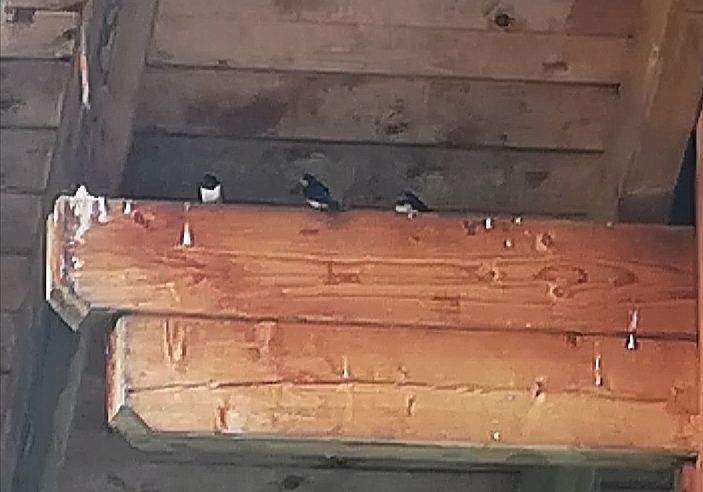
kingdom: Animalia
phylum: Chordata
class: Aves
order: Passeriformes
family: Hirundinidae
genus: Hirundo
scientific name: Hirundo rustica
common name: Barn swallow
